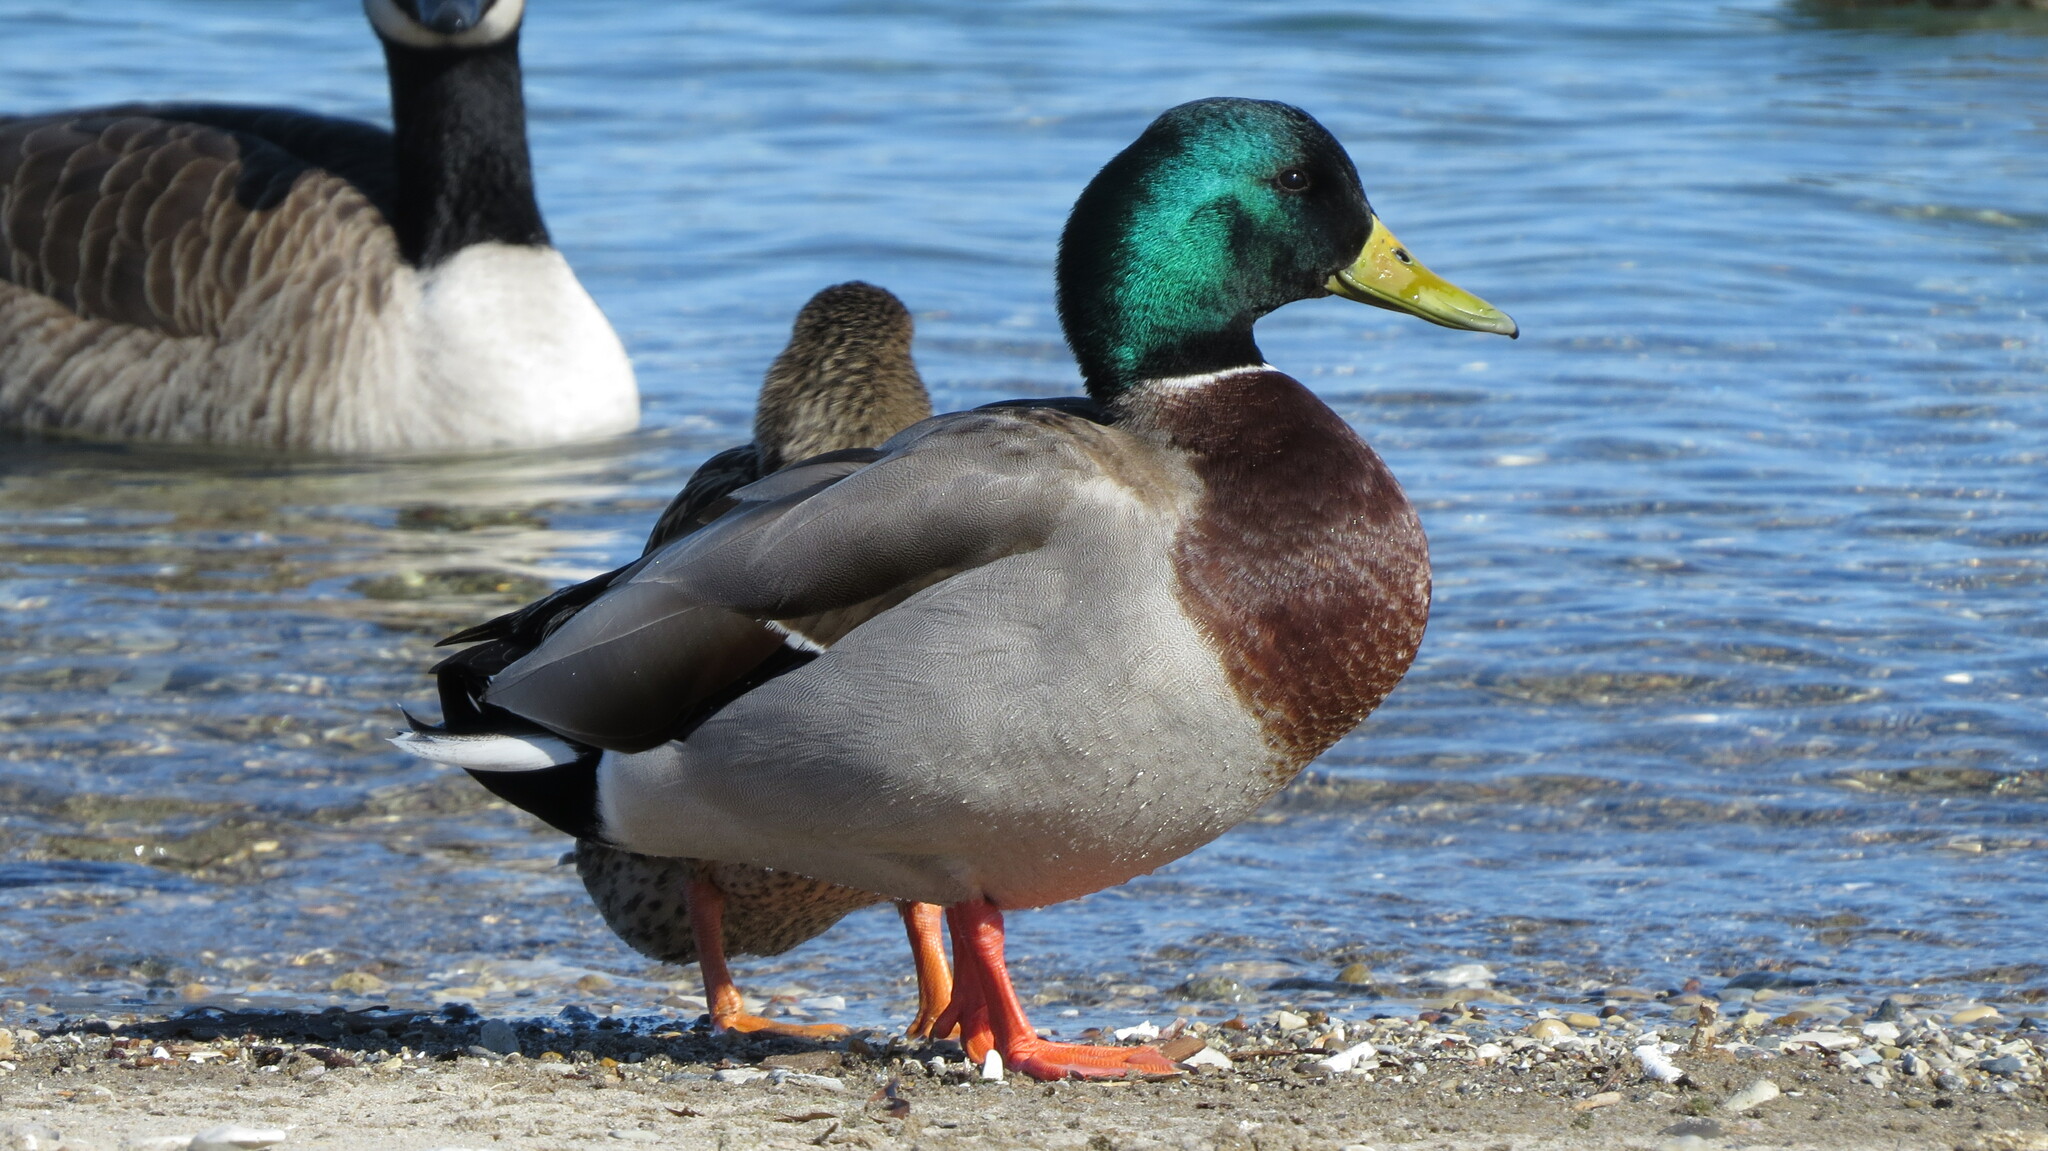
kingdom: Animalia
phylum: Chordata
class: Aves
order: Anseriformes
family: Anatidae
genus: Anas
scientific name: Anas platyrhynchos
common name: Mallard
